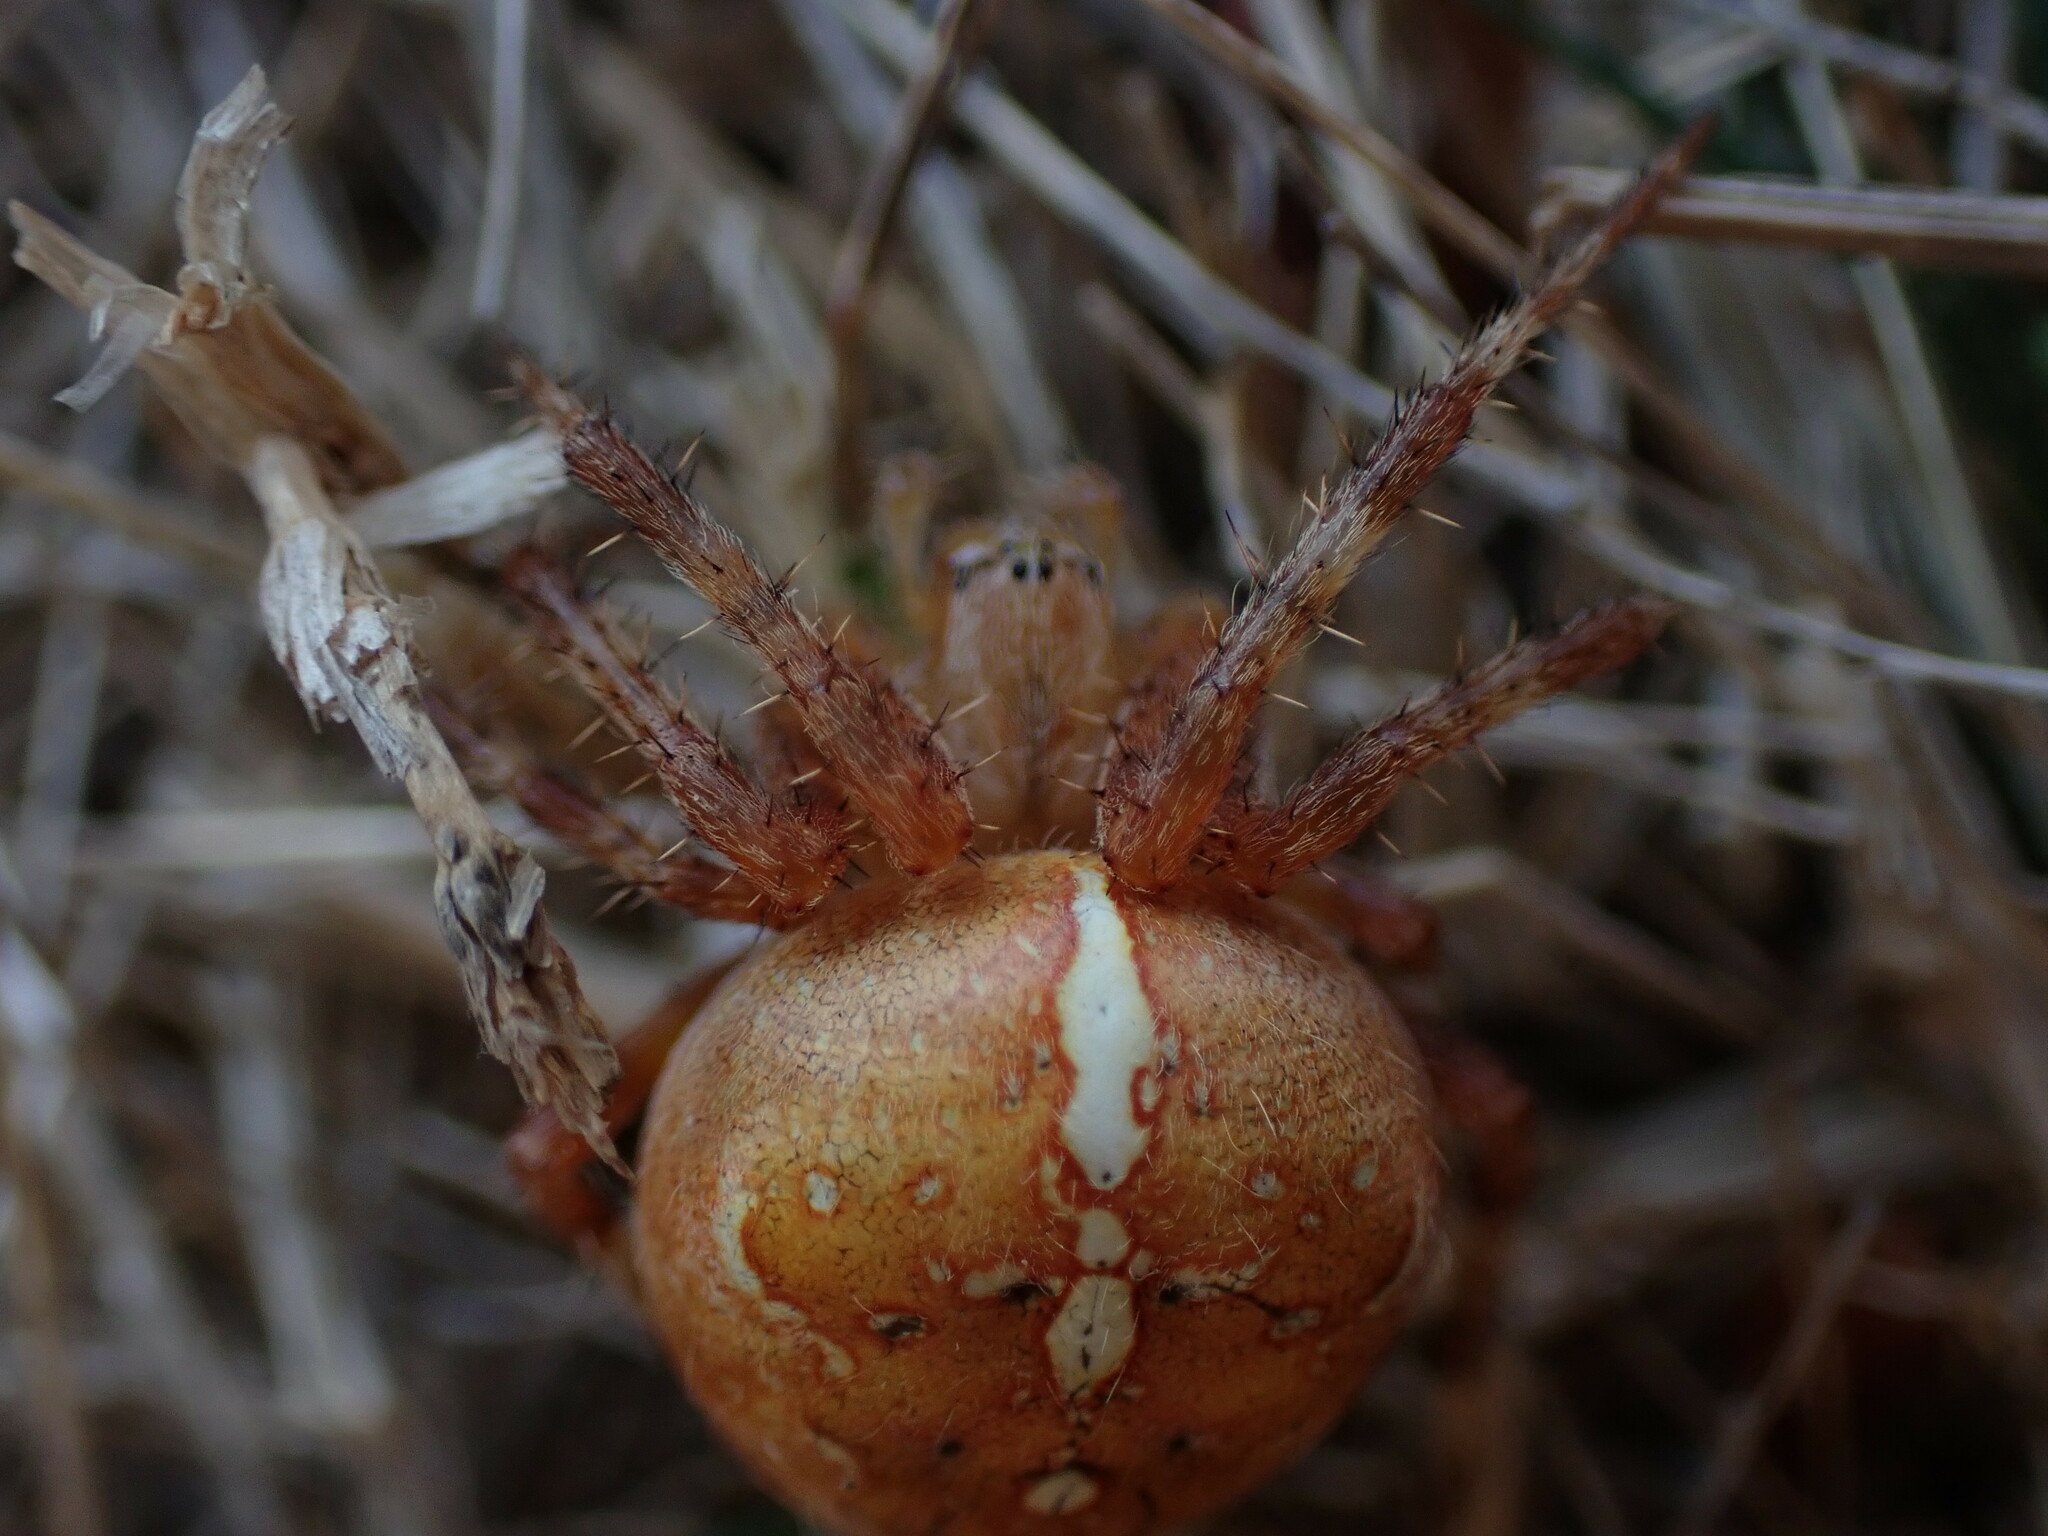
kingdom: Animalia
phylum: Arthropoda
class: Arachnida
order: Araneae
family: Araneidae
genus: Araneus
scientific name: Araneus diadematus
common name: Cross orbweaver
